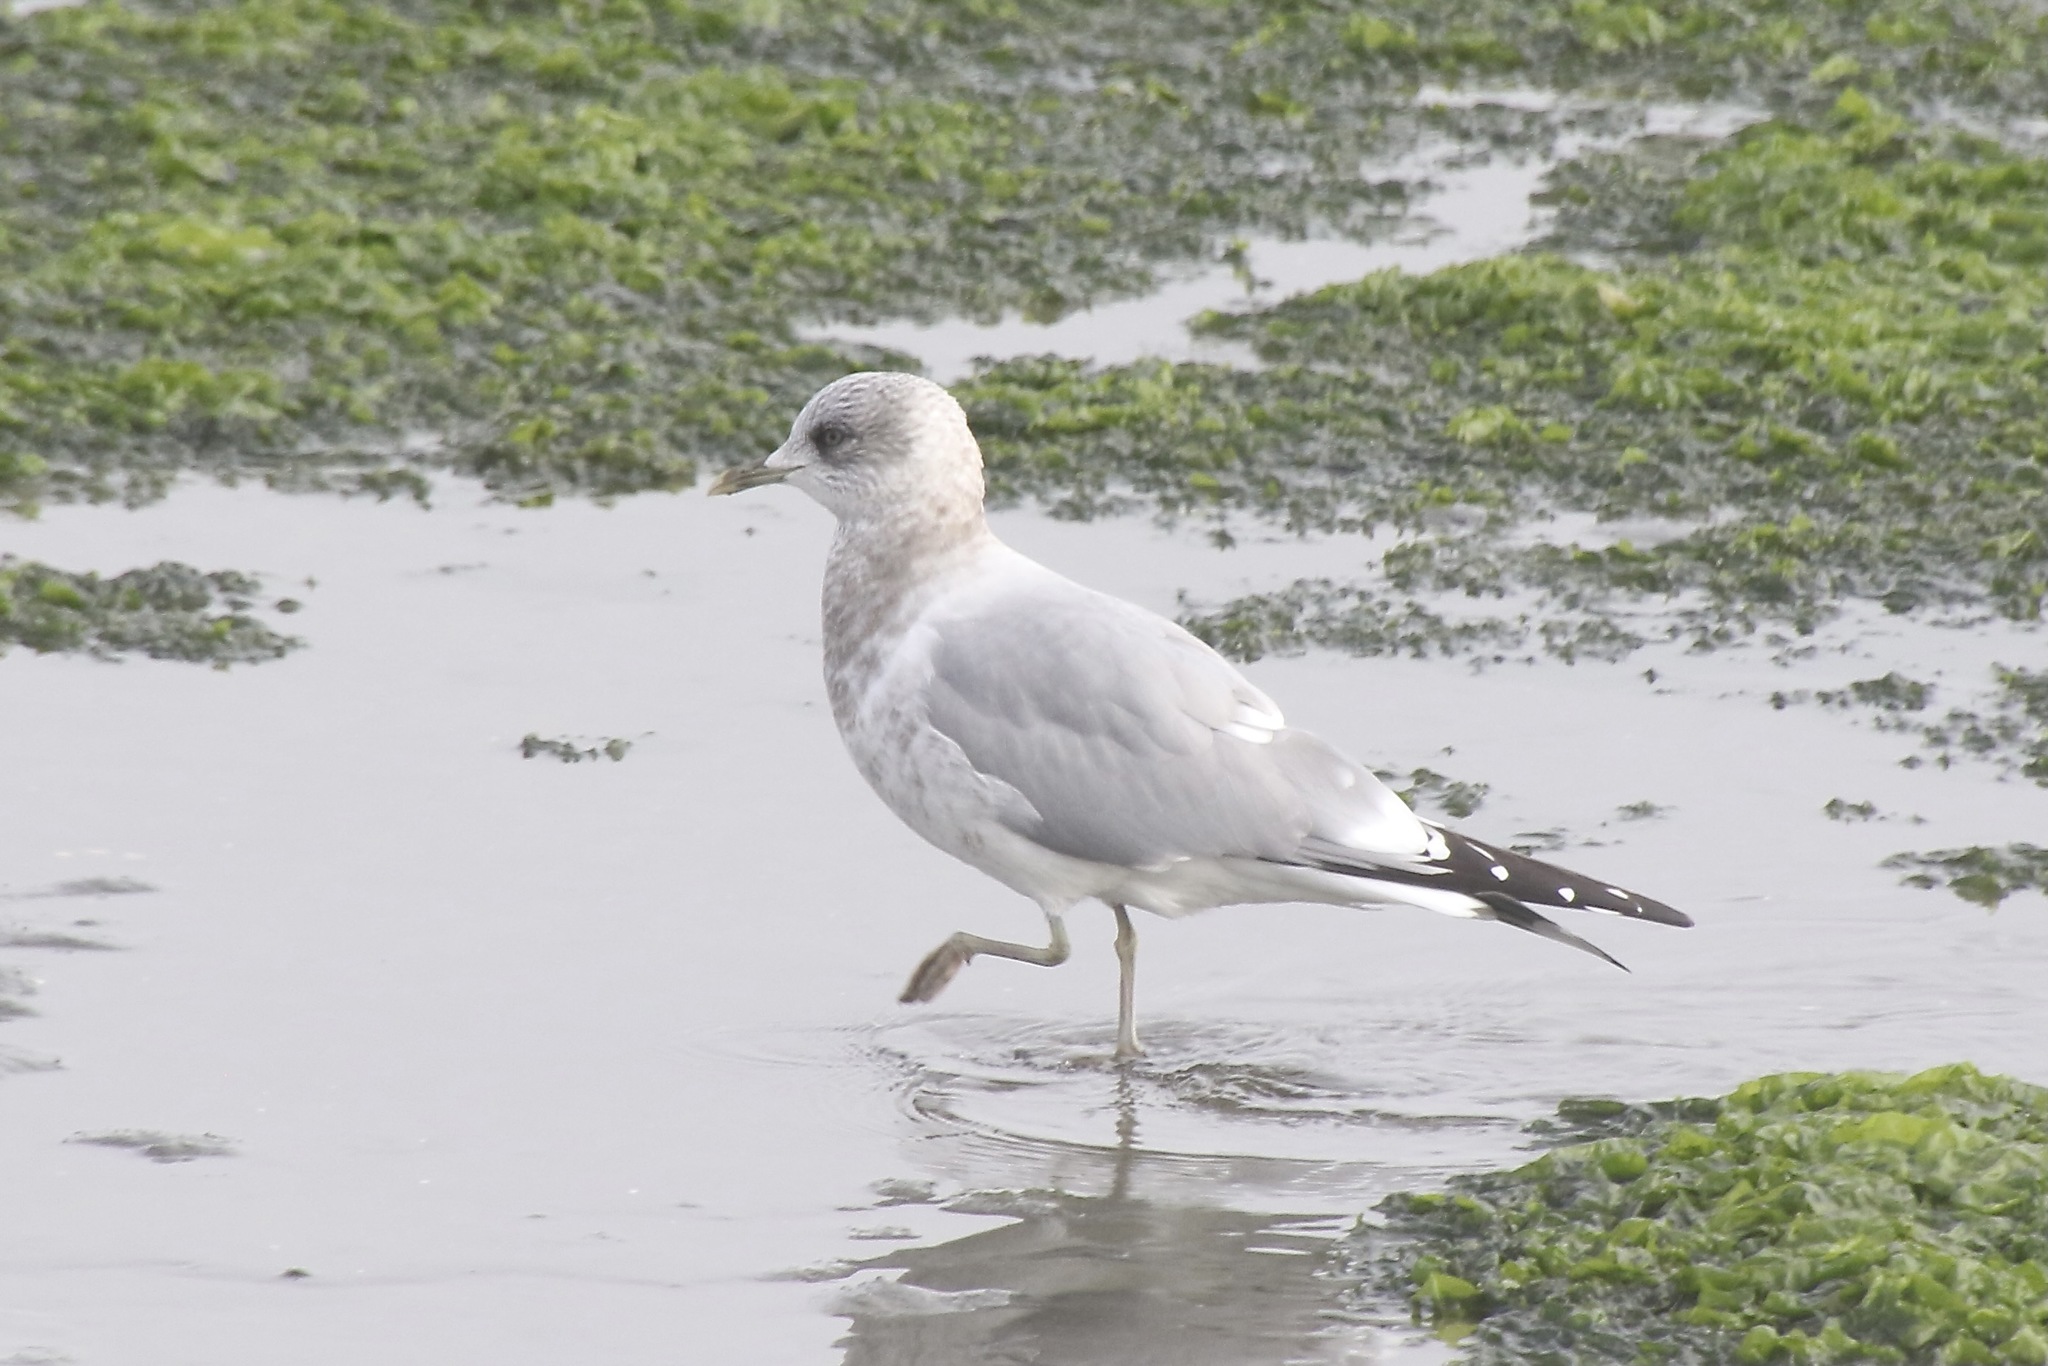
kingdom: Animalia
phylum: Chordata
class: Aves
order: Charadriiformes
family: Laridae
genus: Larus
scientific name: Larus brachyrhynchus
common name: Short-billed gull
